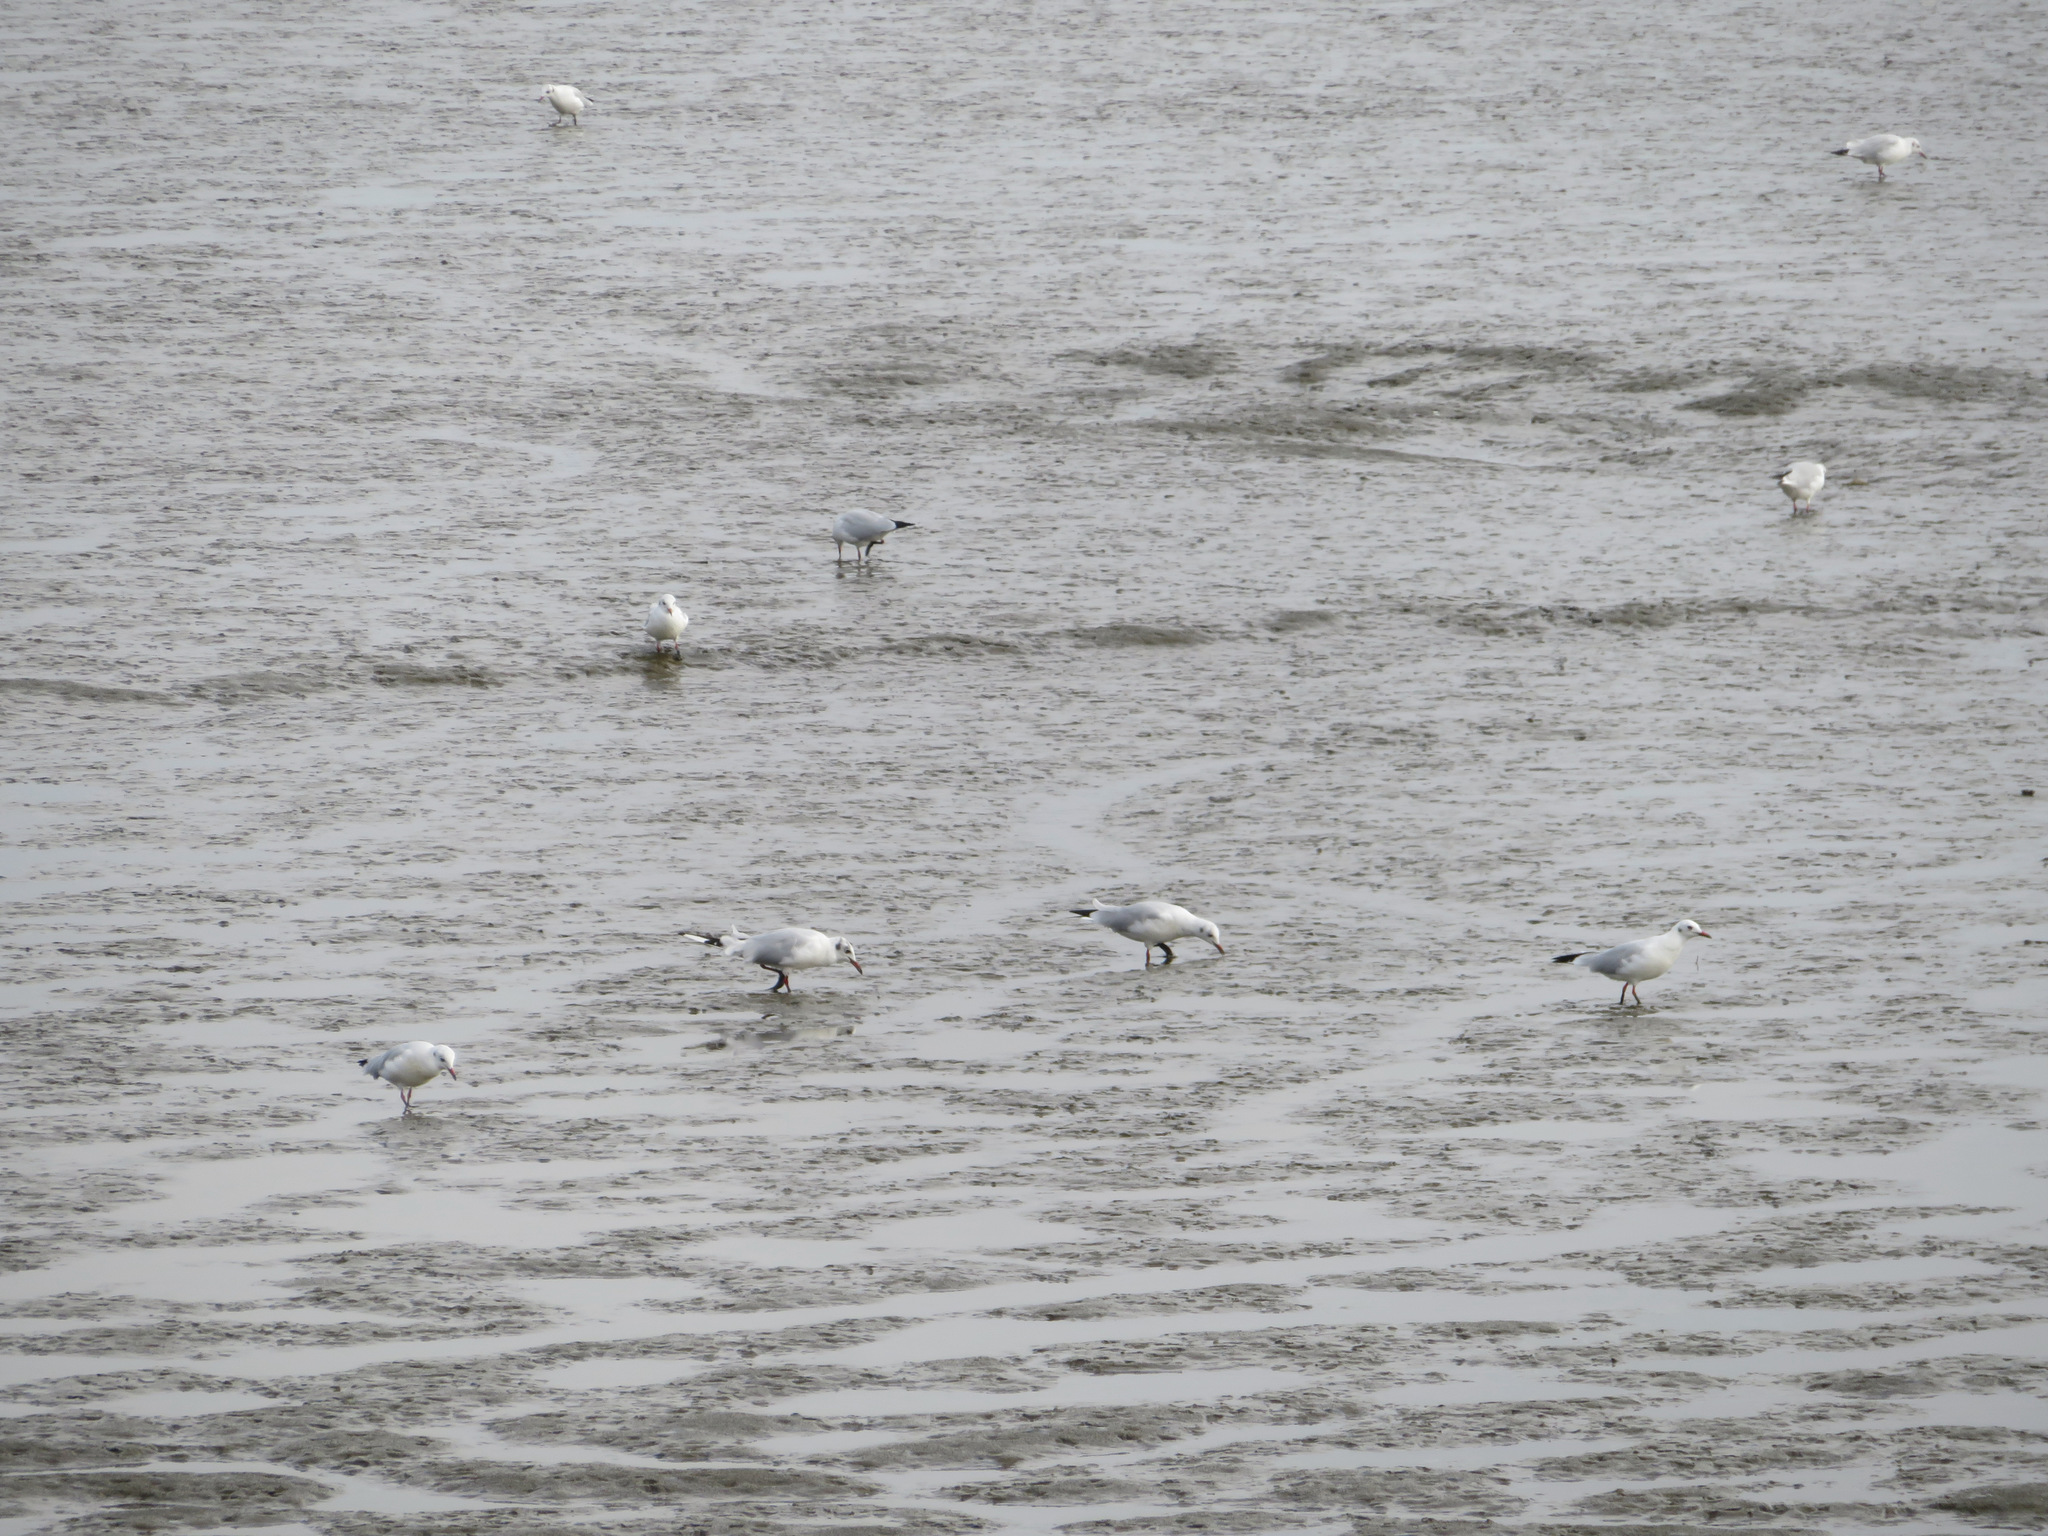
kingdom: Animalia
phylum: Chordata
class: Aves
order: Charadriiformes
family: Laridae
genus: Chroicocephalus
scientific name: Chroicocephalus ridibundus
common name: Black-headed gull
